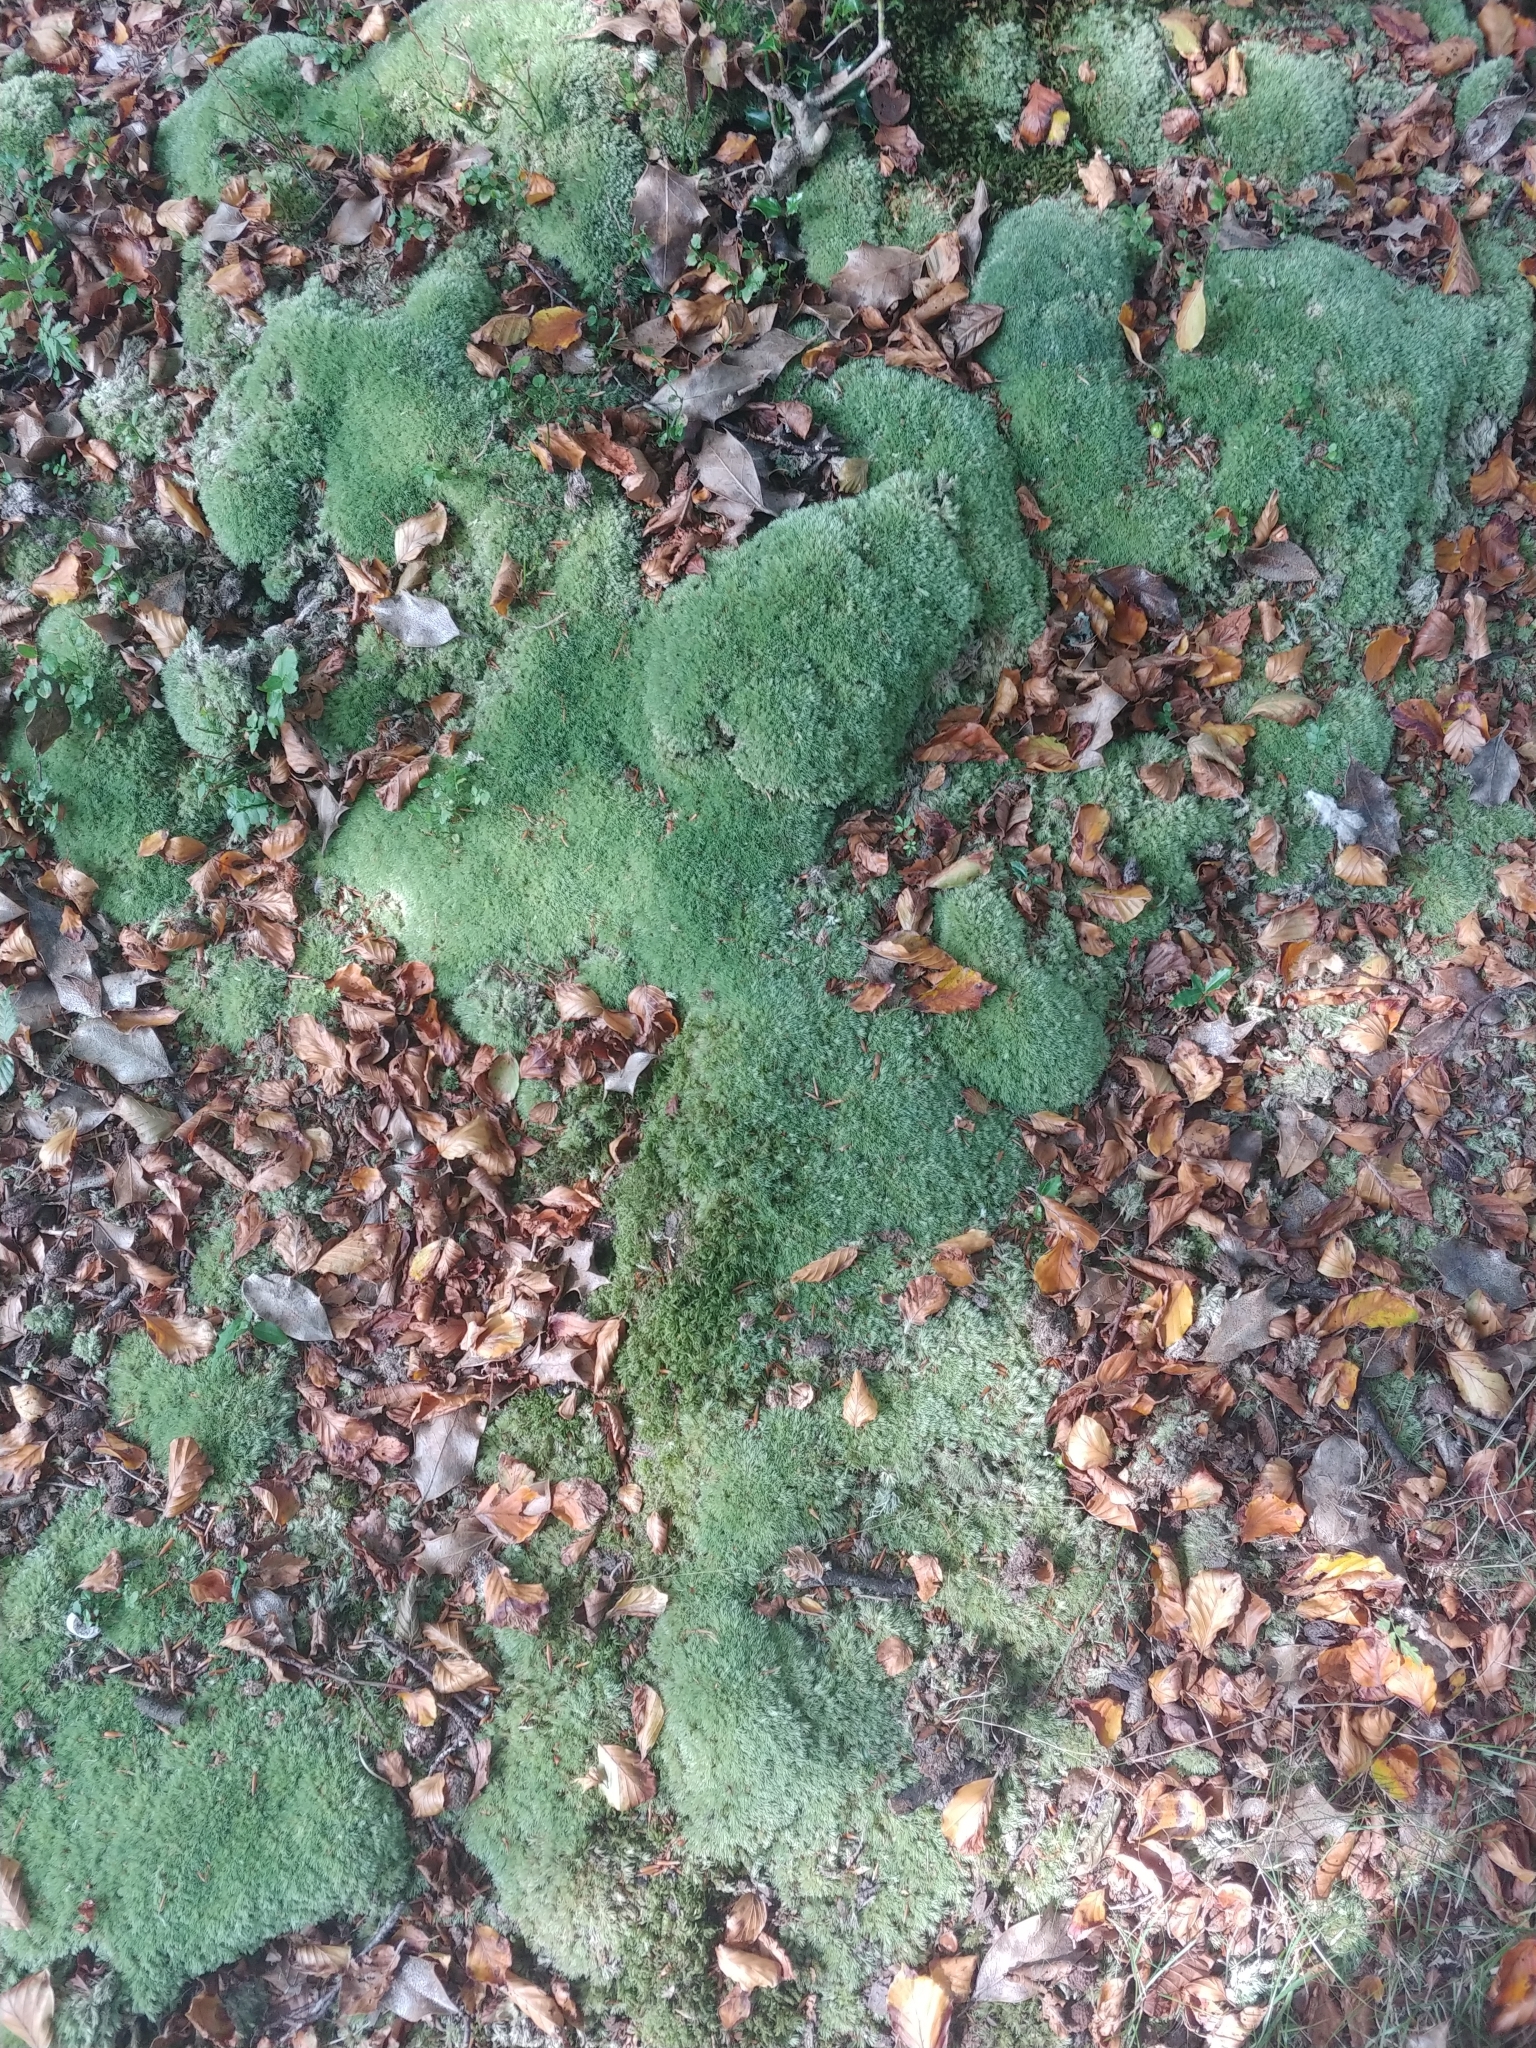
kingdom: Plantae
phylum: Bryophyta
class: Bryopsida
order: Dicranales
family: Leucobryaceae
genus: Leucobryum
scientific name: Leucobryum glaucum
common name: Large white-moss
